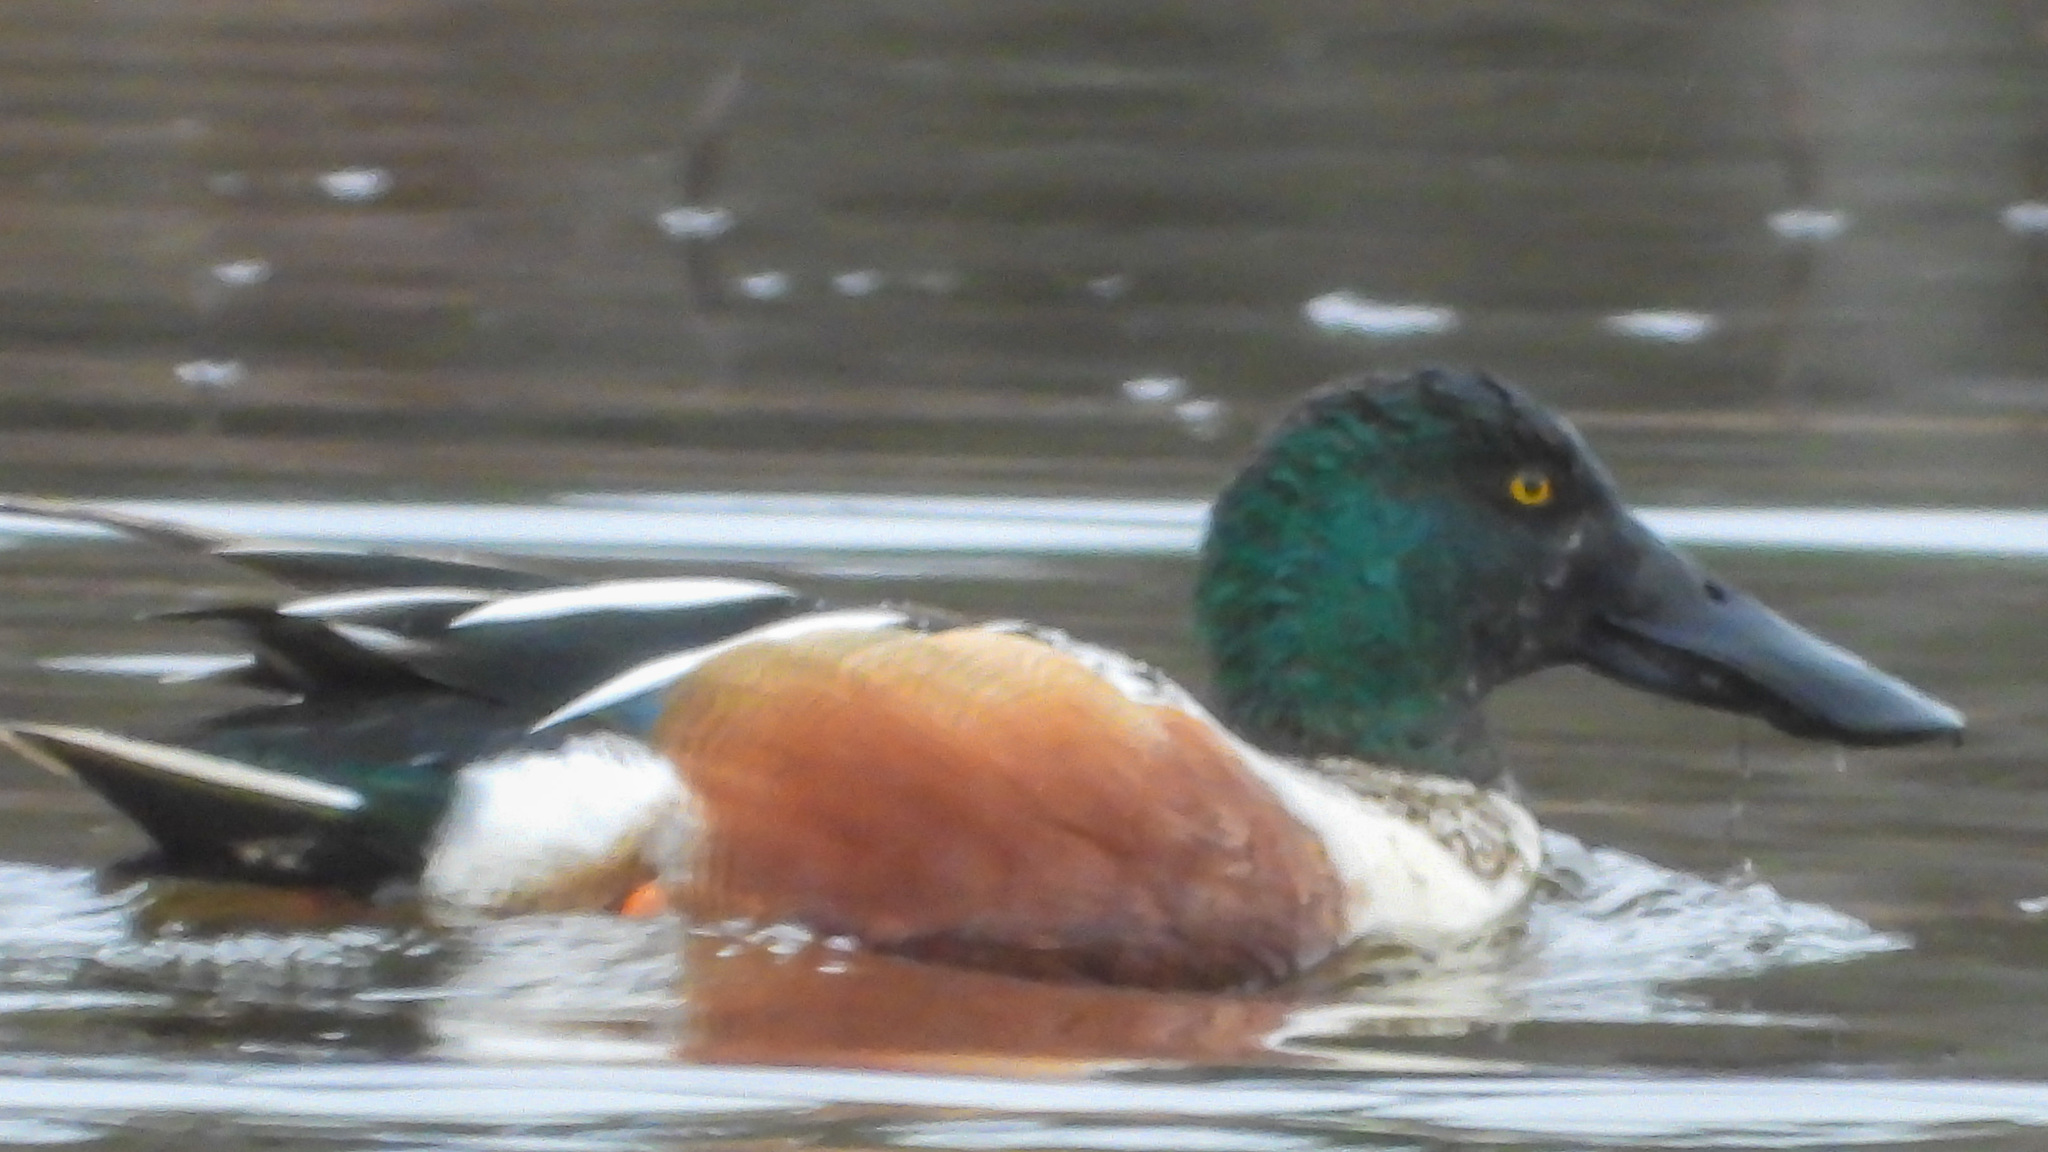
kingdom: Animalia
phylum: Chordata
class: Aves
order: Anseriformes
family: Anatidae
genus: Spatula
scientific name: Spatula clypeata
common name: Northern shoveler
